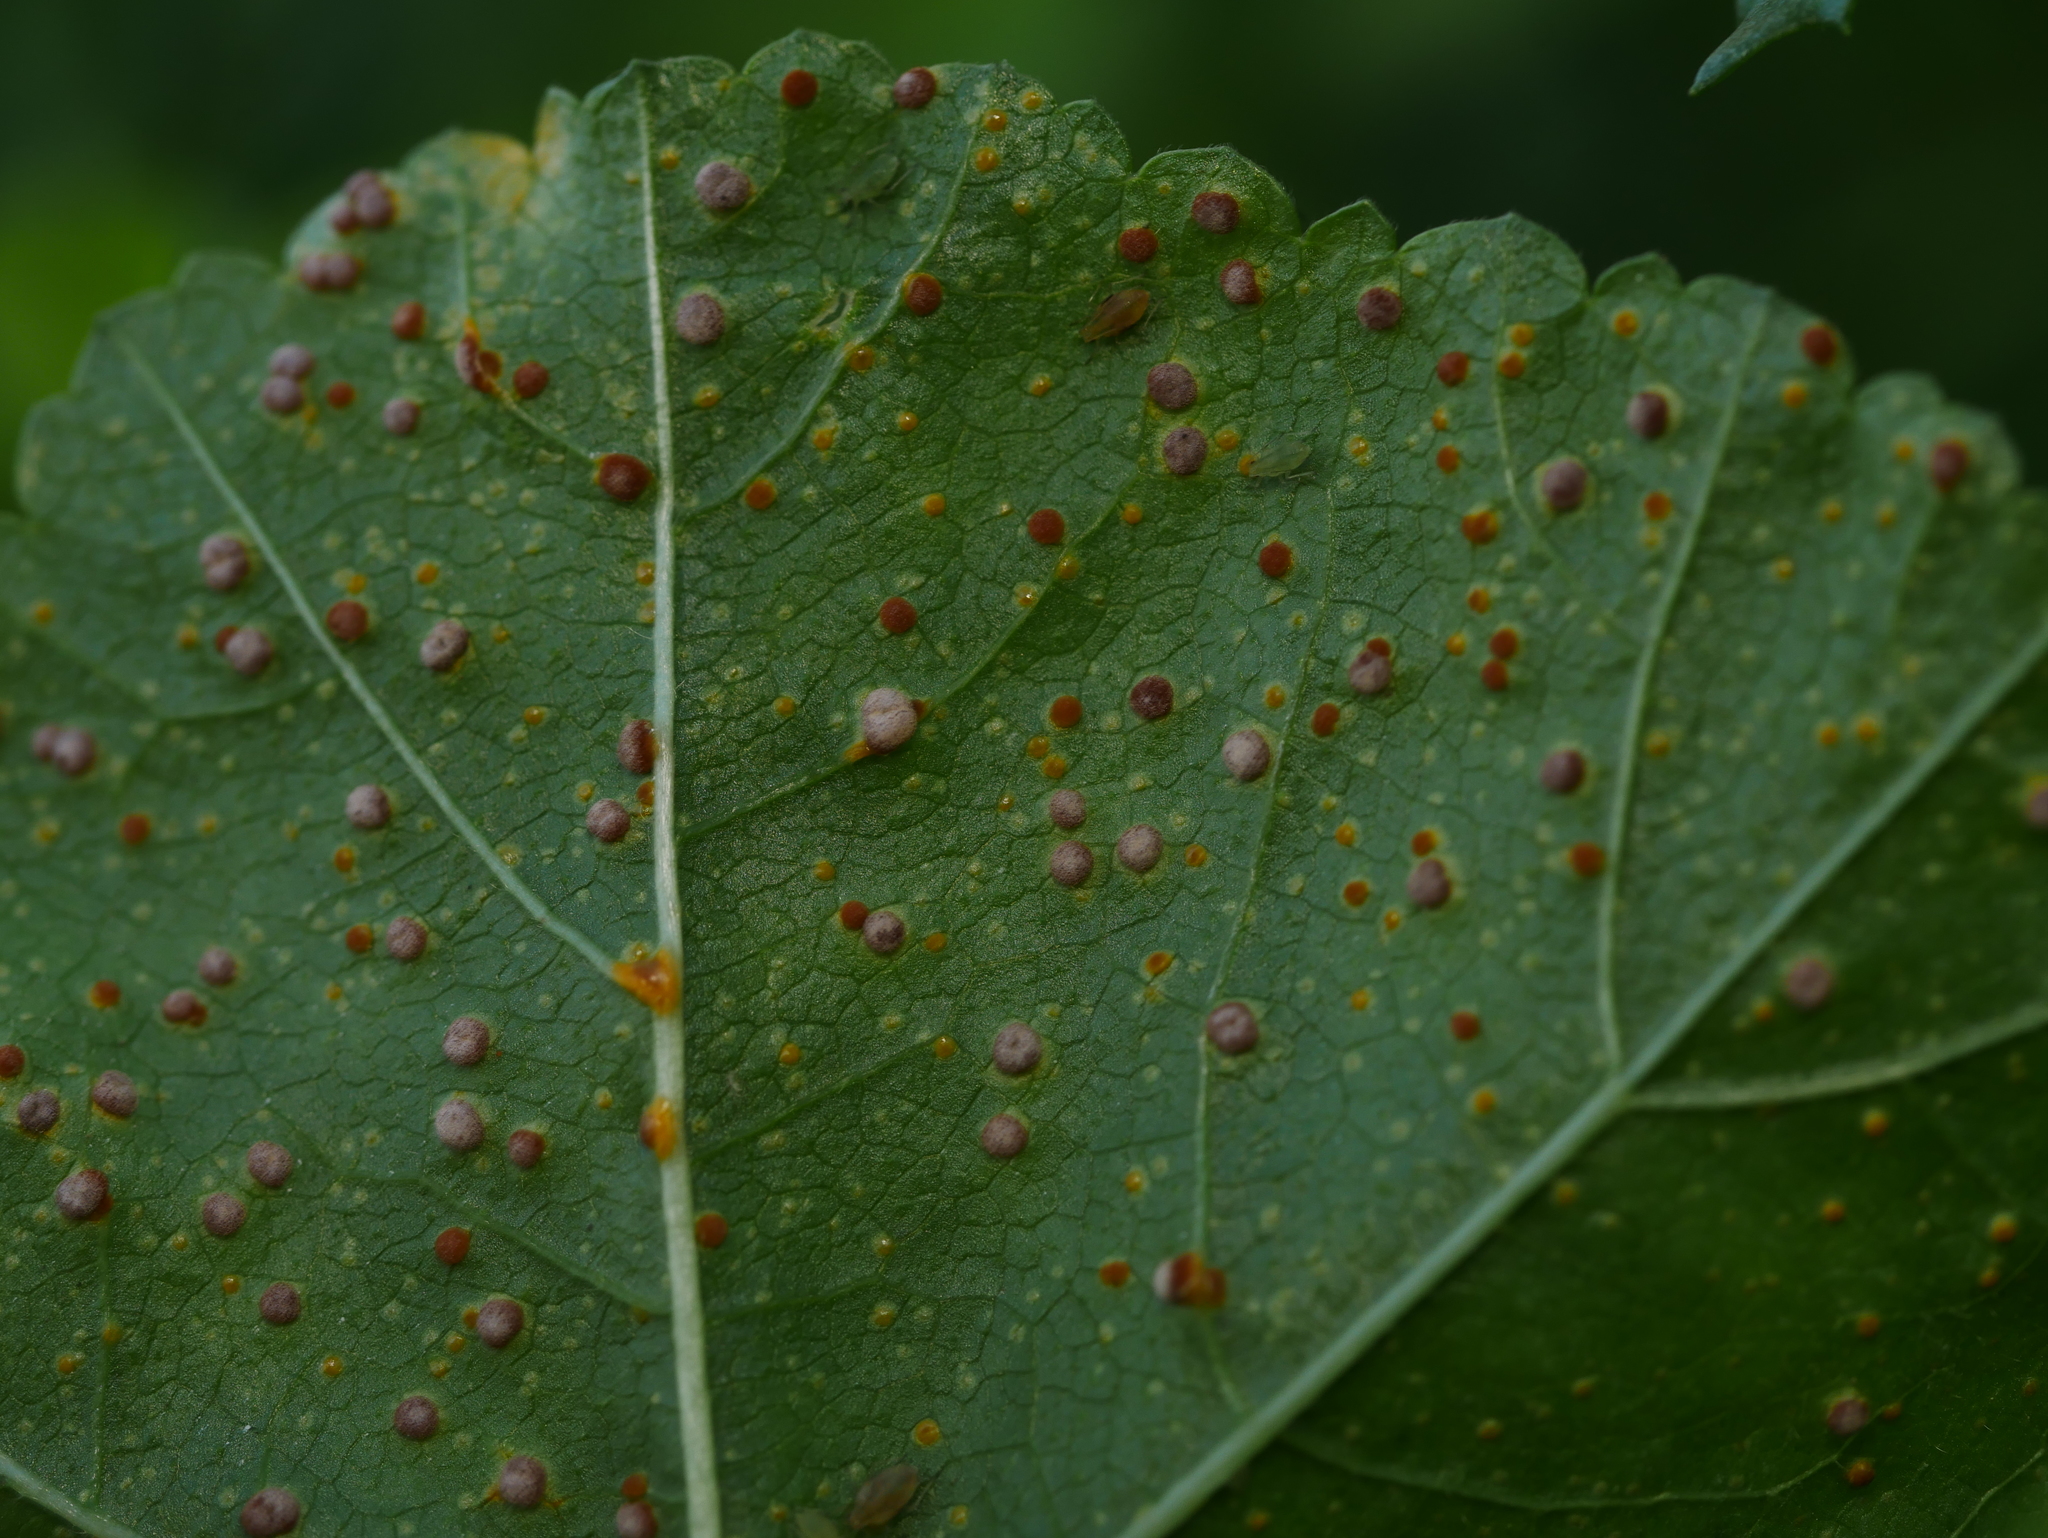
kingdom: Fungi
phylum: Basidiomycota
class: Pucciniomycetes
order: Pucciniales
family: Pucciniaceae
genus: Puccinia
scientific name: Puccinia malvacearum
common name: Hollyhock rust
